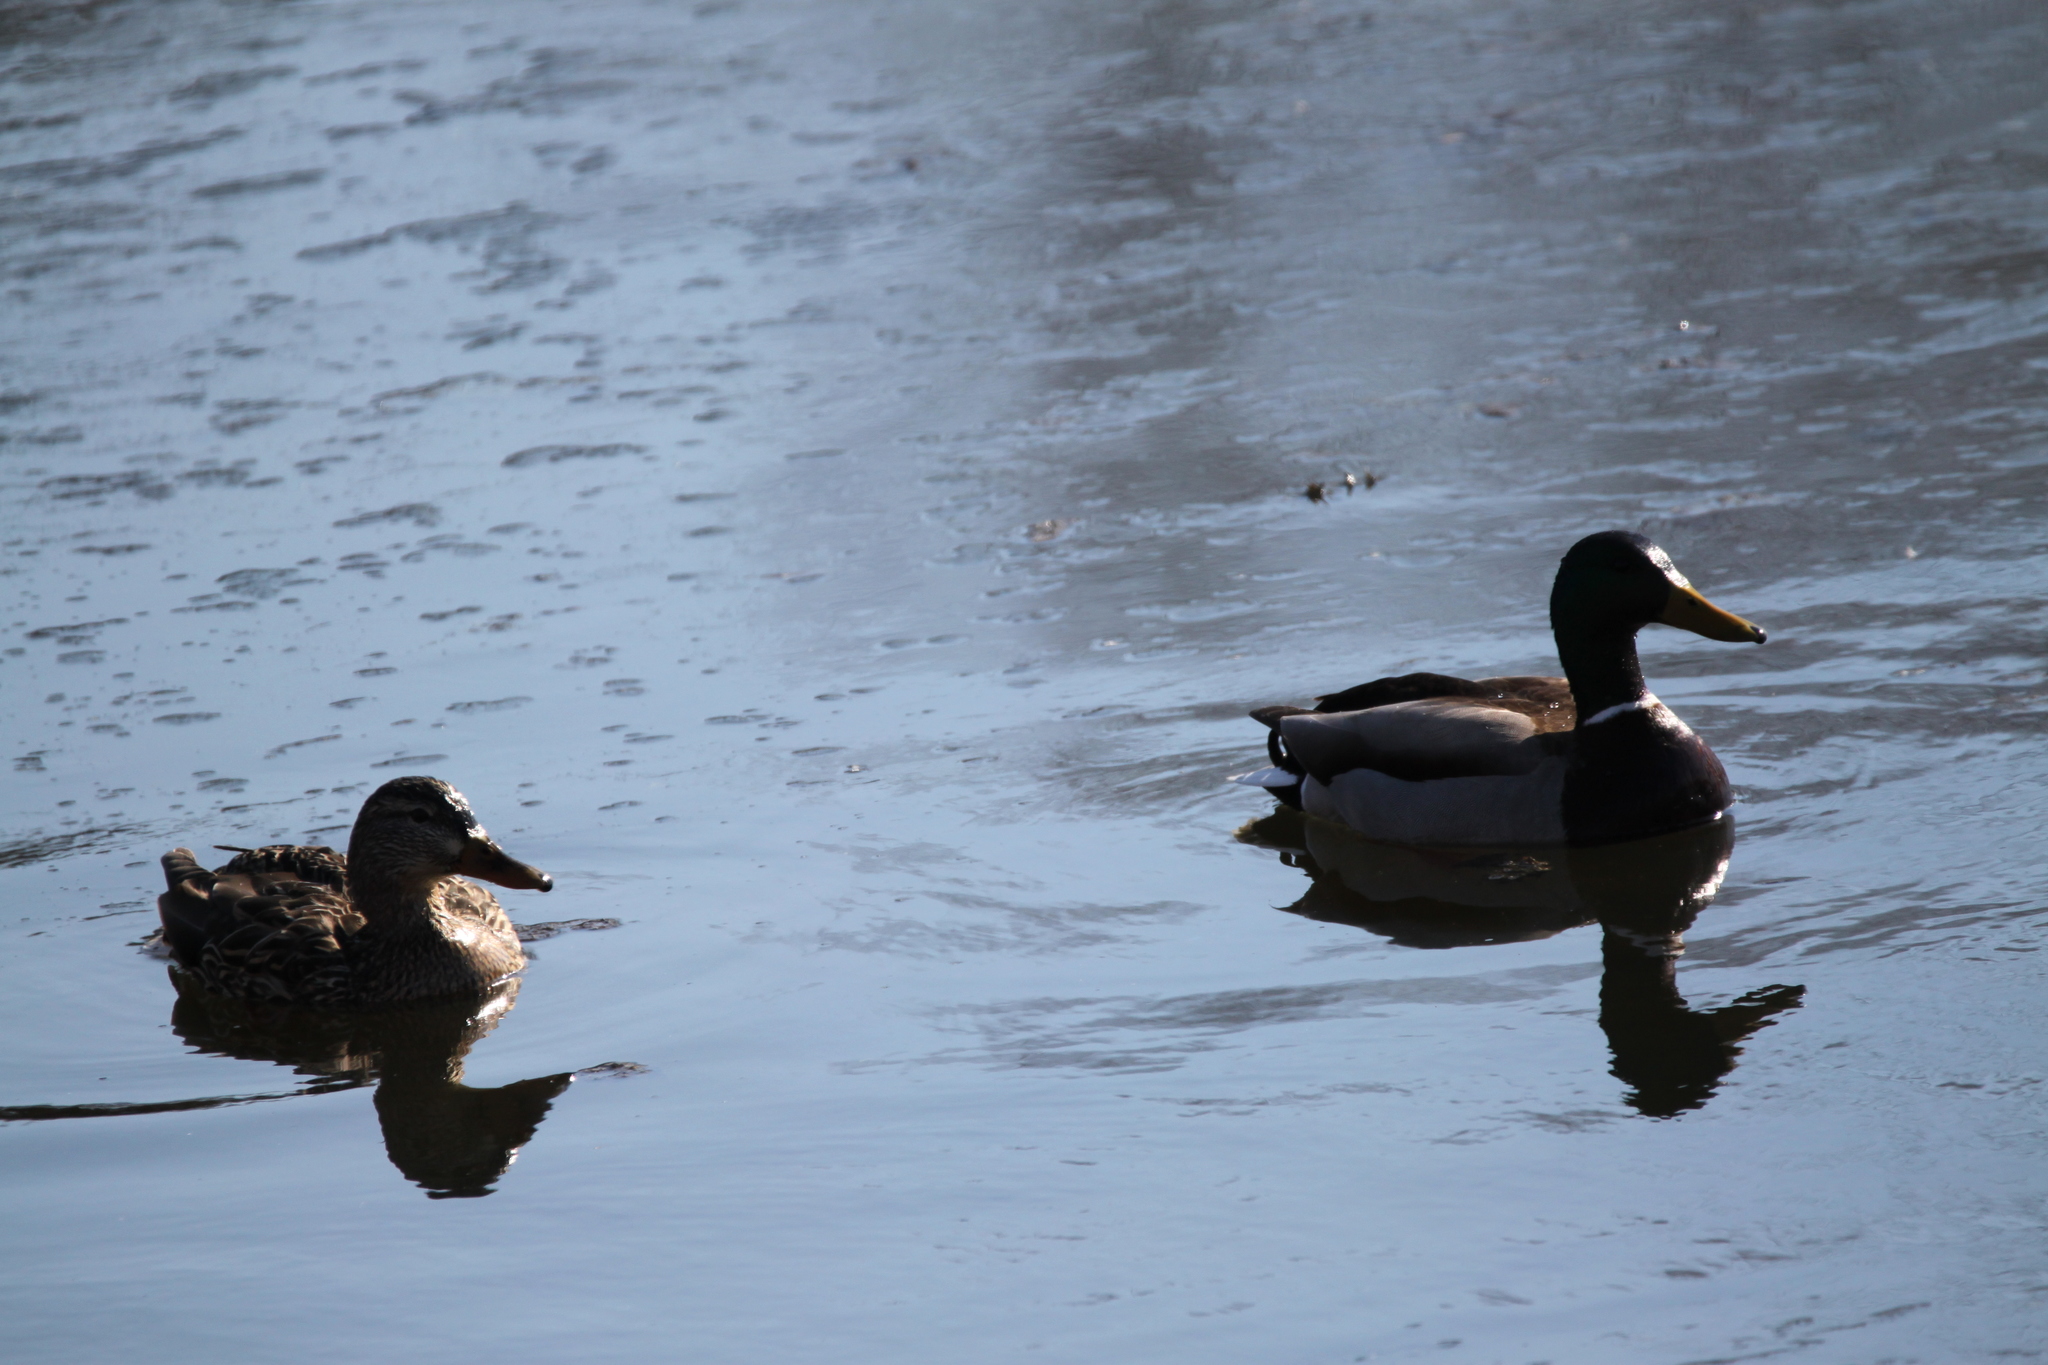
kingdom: Animalia
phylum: Chordata
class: Aves
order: Anseriformes
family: Anatidae
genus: Anas
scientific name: Anas platyrhynchos
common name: Mallard
